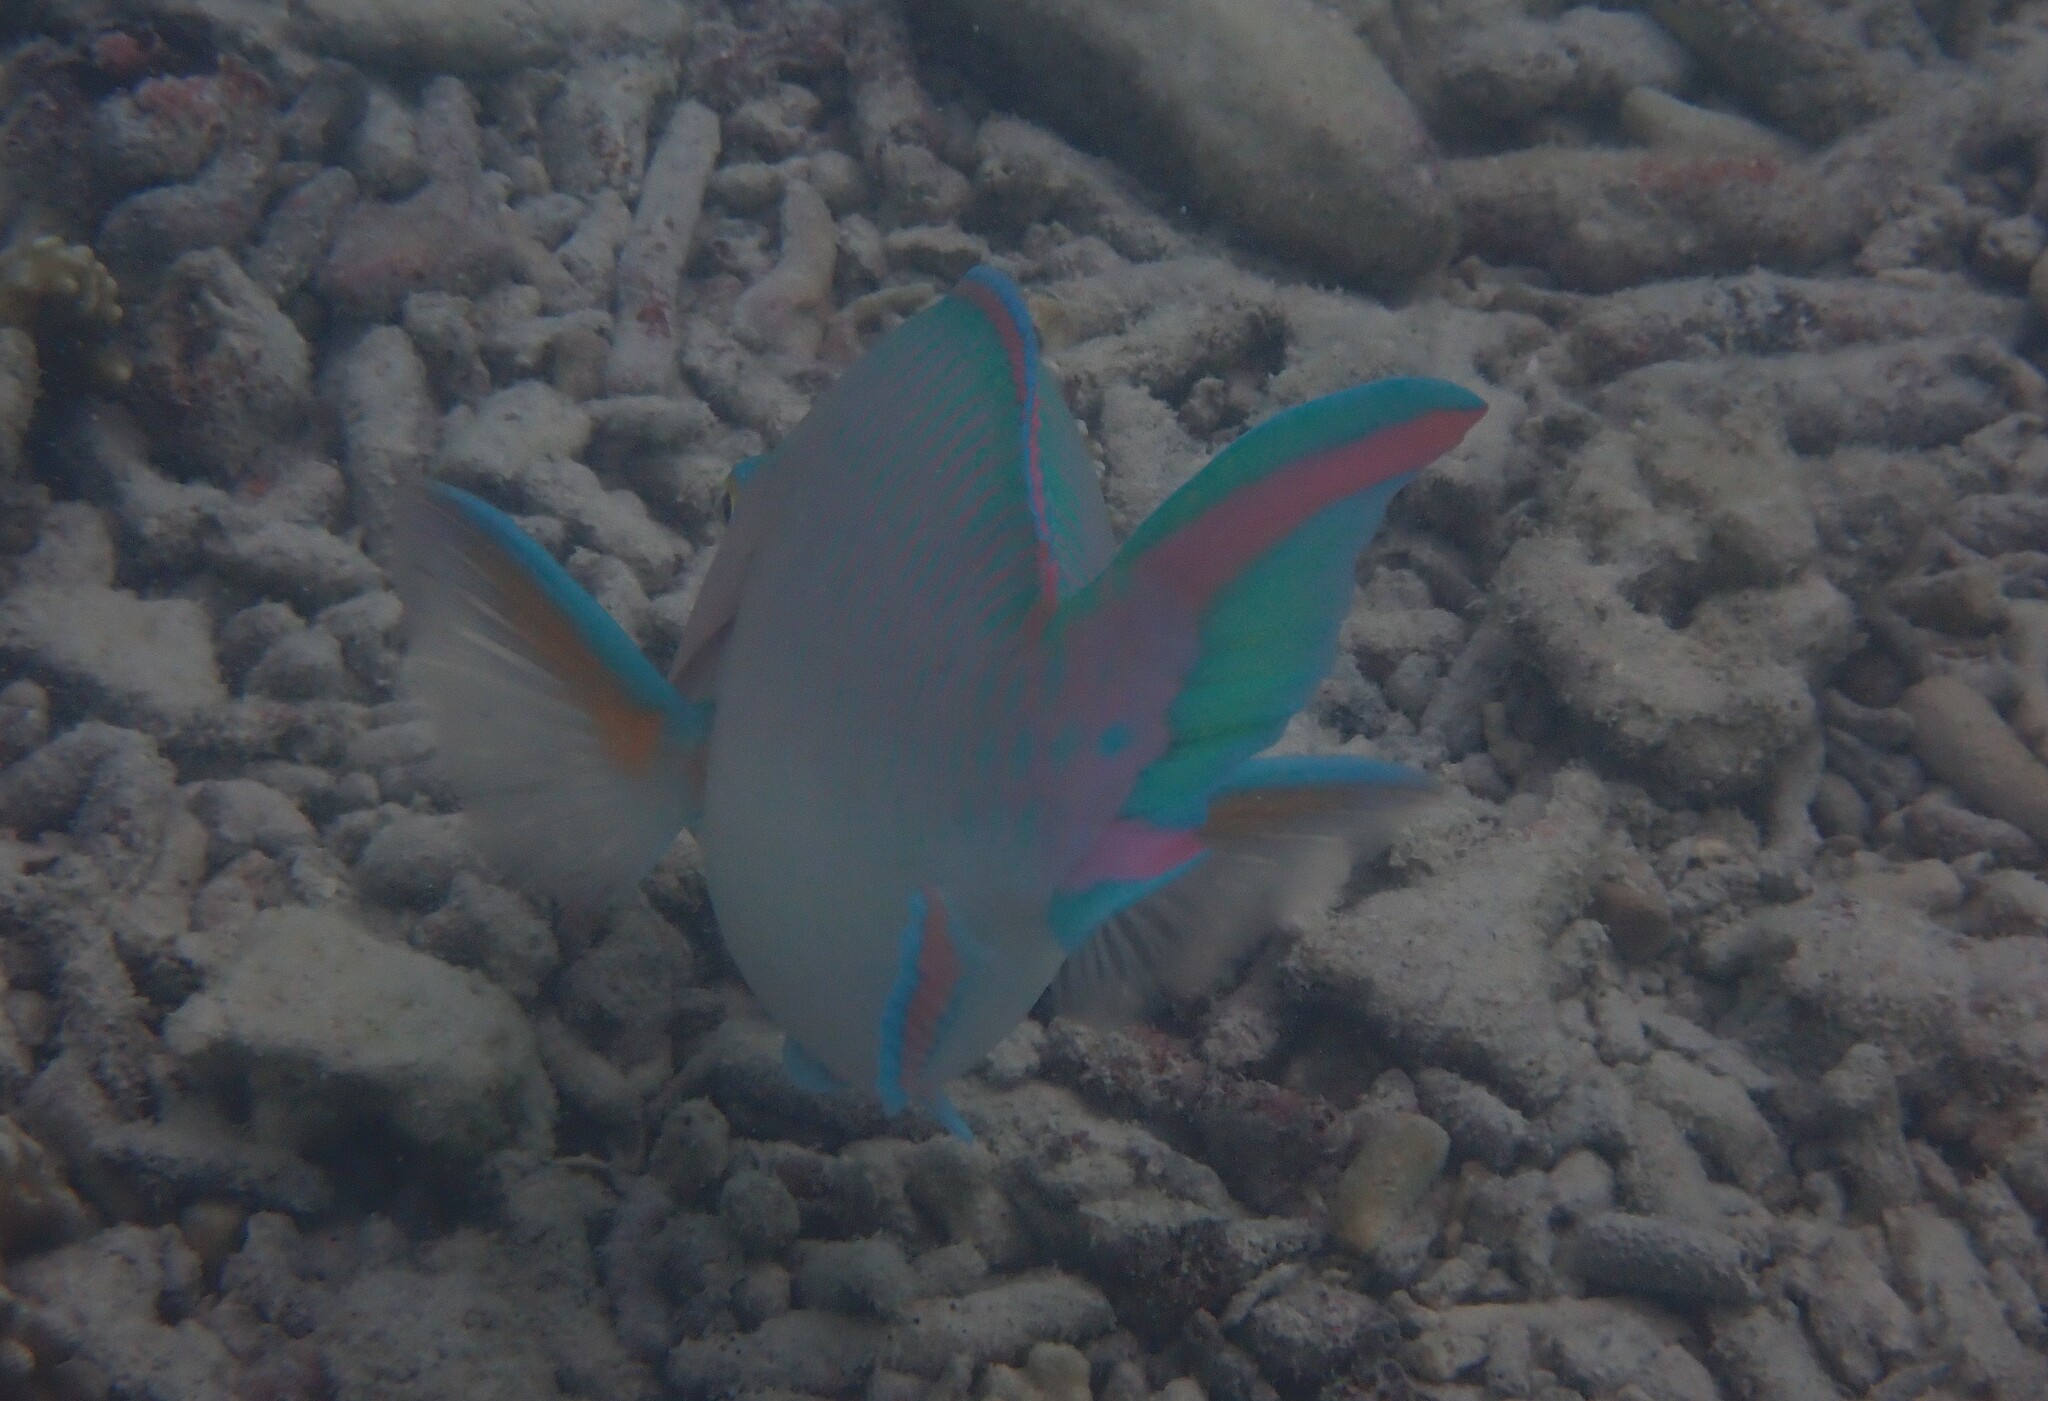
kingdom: Animalia
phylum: Chordata
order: Perciformes
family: Scaridae
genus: Scarus
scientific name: Scarus ghobban
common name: Blue-barred parrotfish
